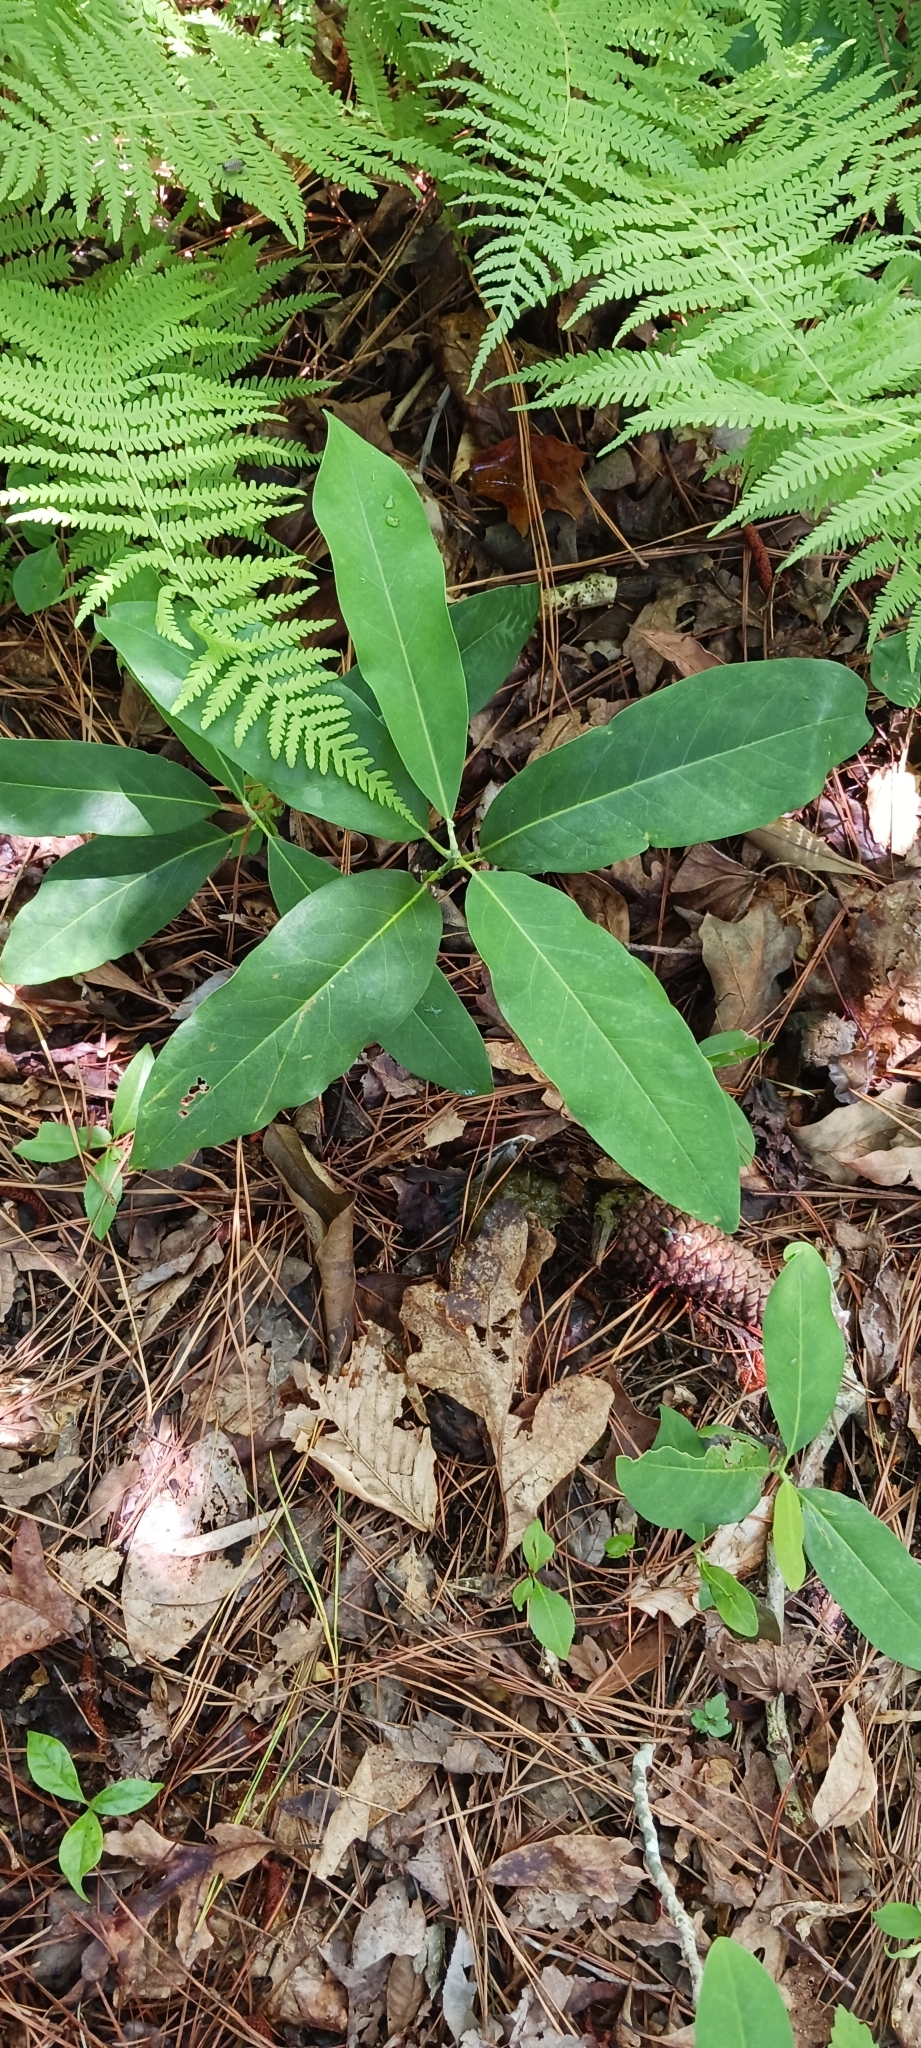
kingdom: Plantae
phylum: Tracheophyta
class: Magnoliopsida
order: Magnoliales
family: Magnoliaceae
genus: Magnolia
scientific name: Magnolia virginiana
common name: Swamp bay
